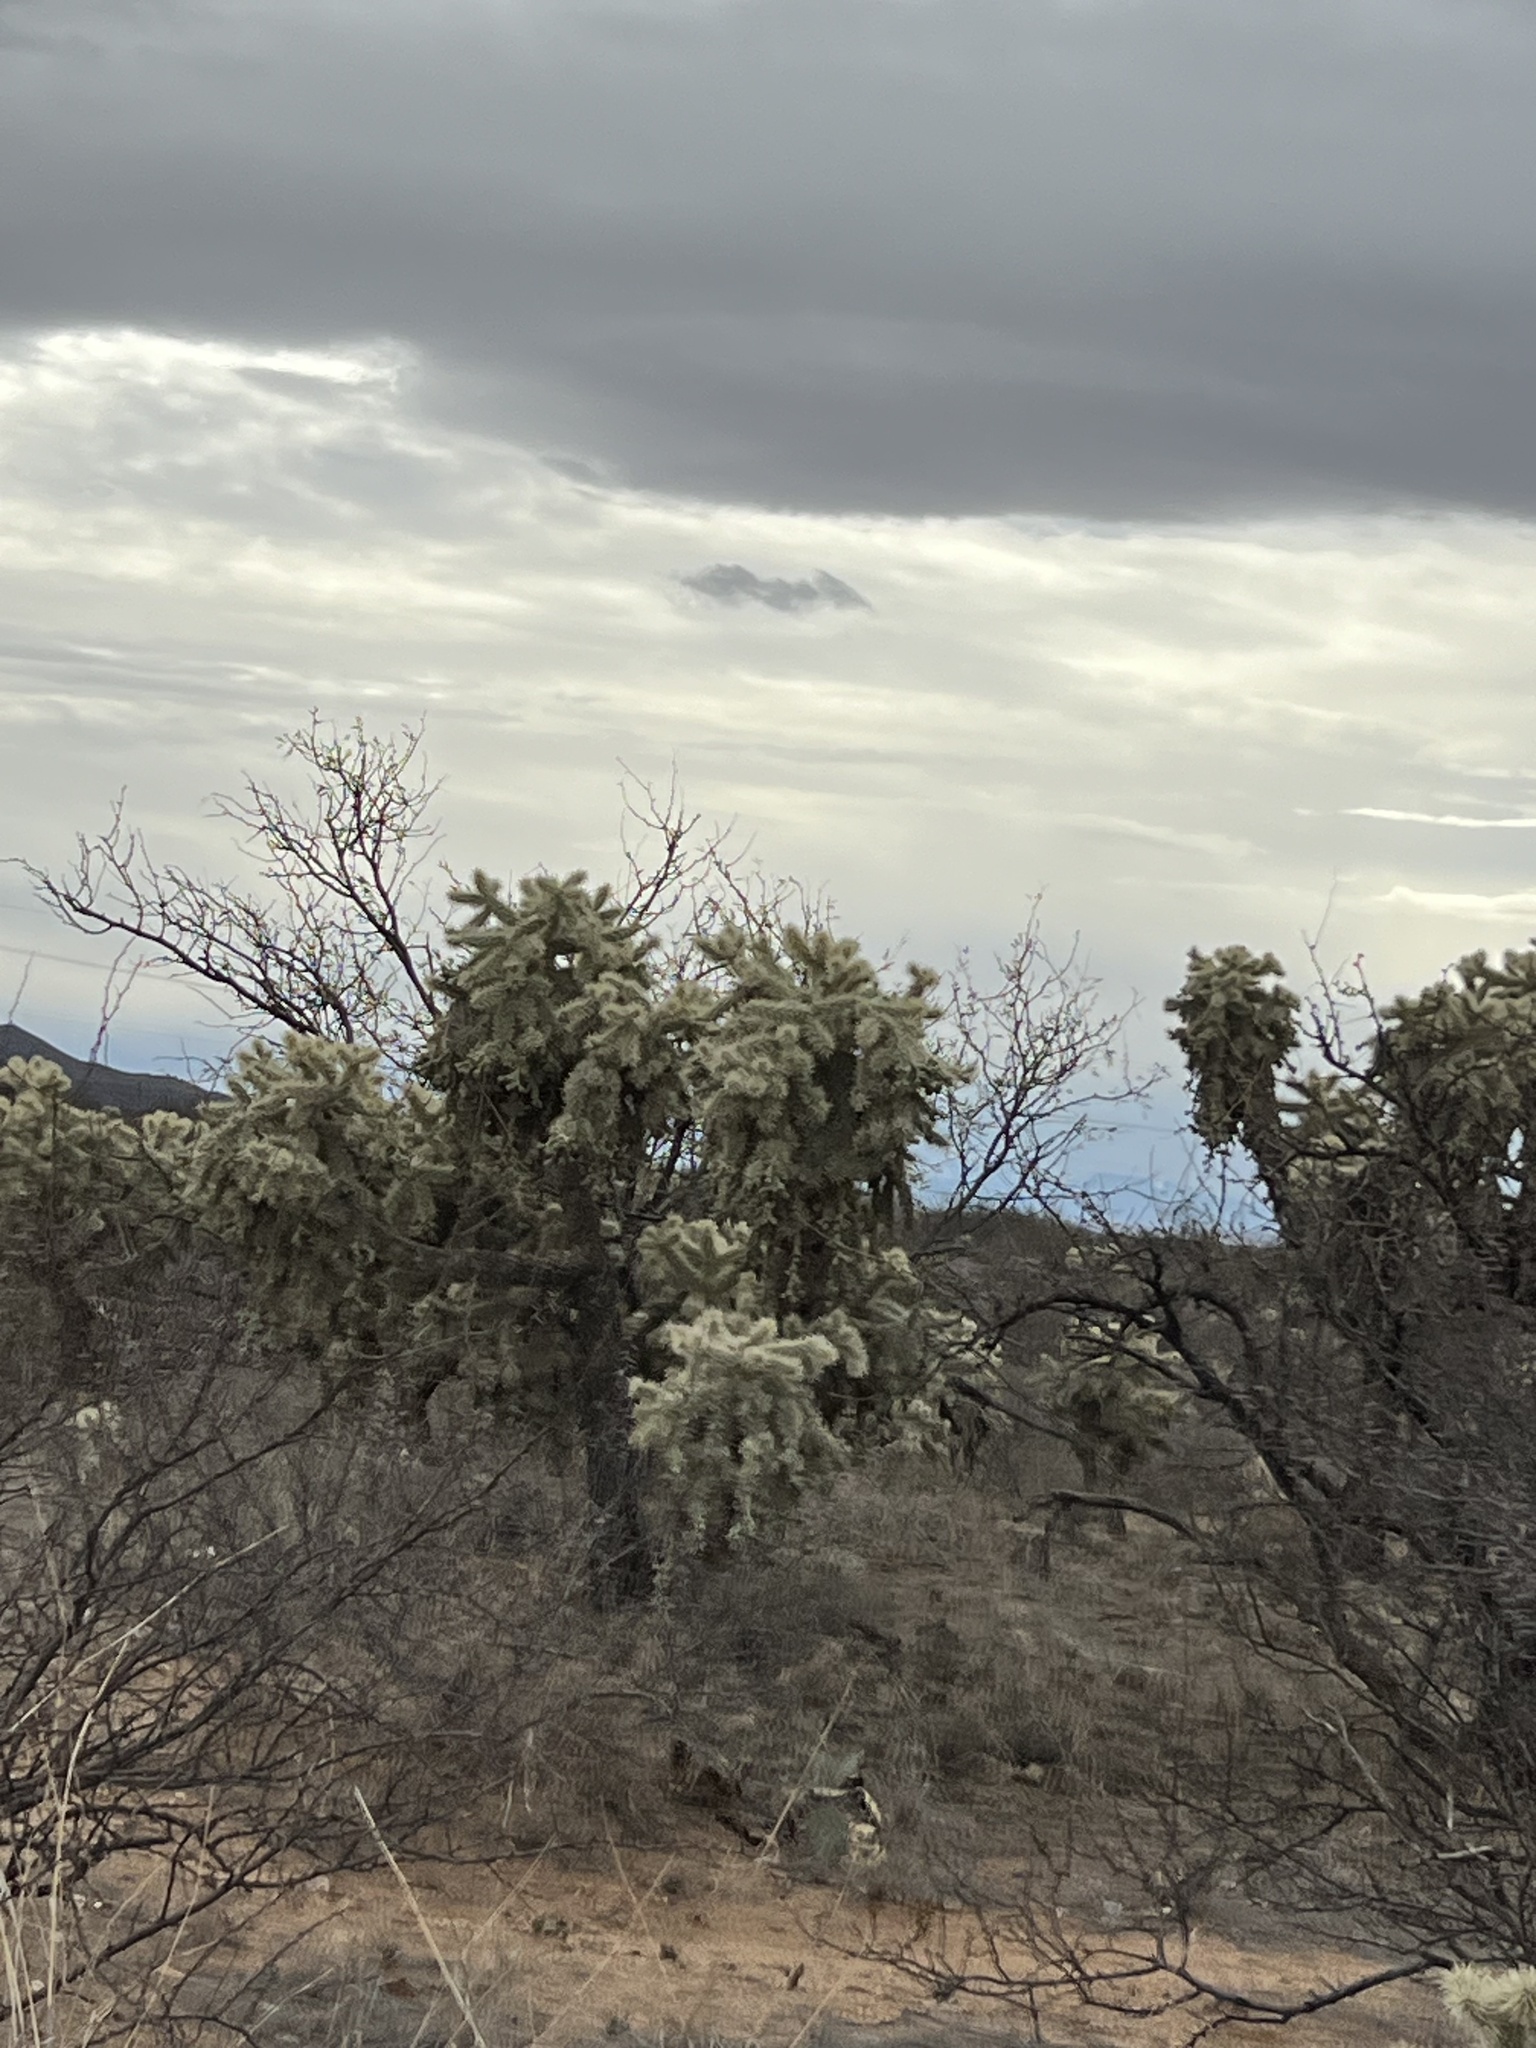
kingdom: Plantae
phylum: Tracheophyta
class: Magnoliopsida
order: Caryophyllales
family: Cactaceae
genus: Cylindropuntia
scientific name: Cylindropuntia fulgida
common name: Jumping cholla
